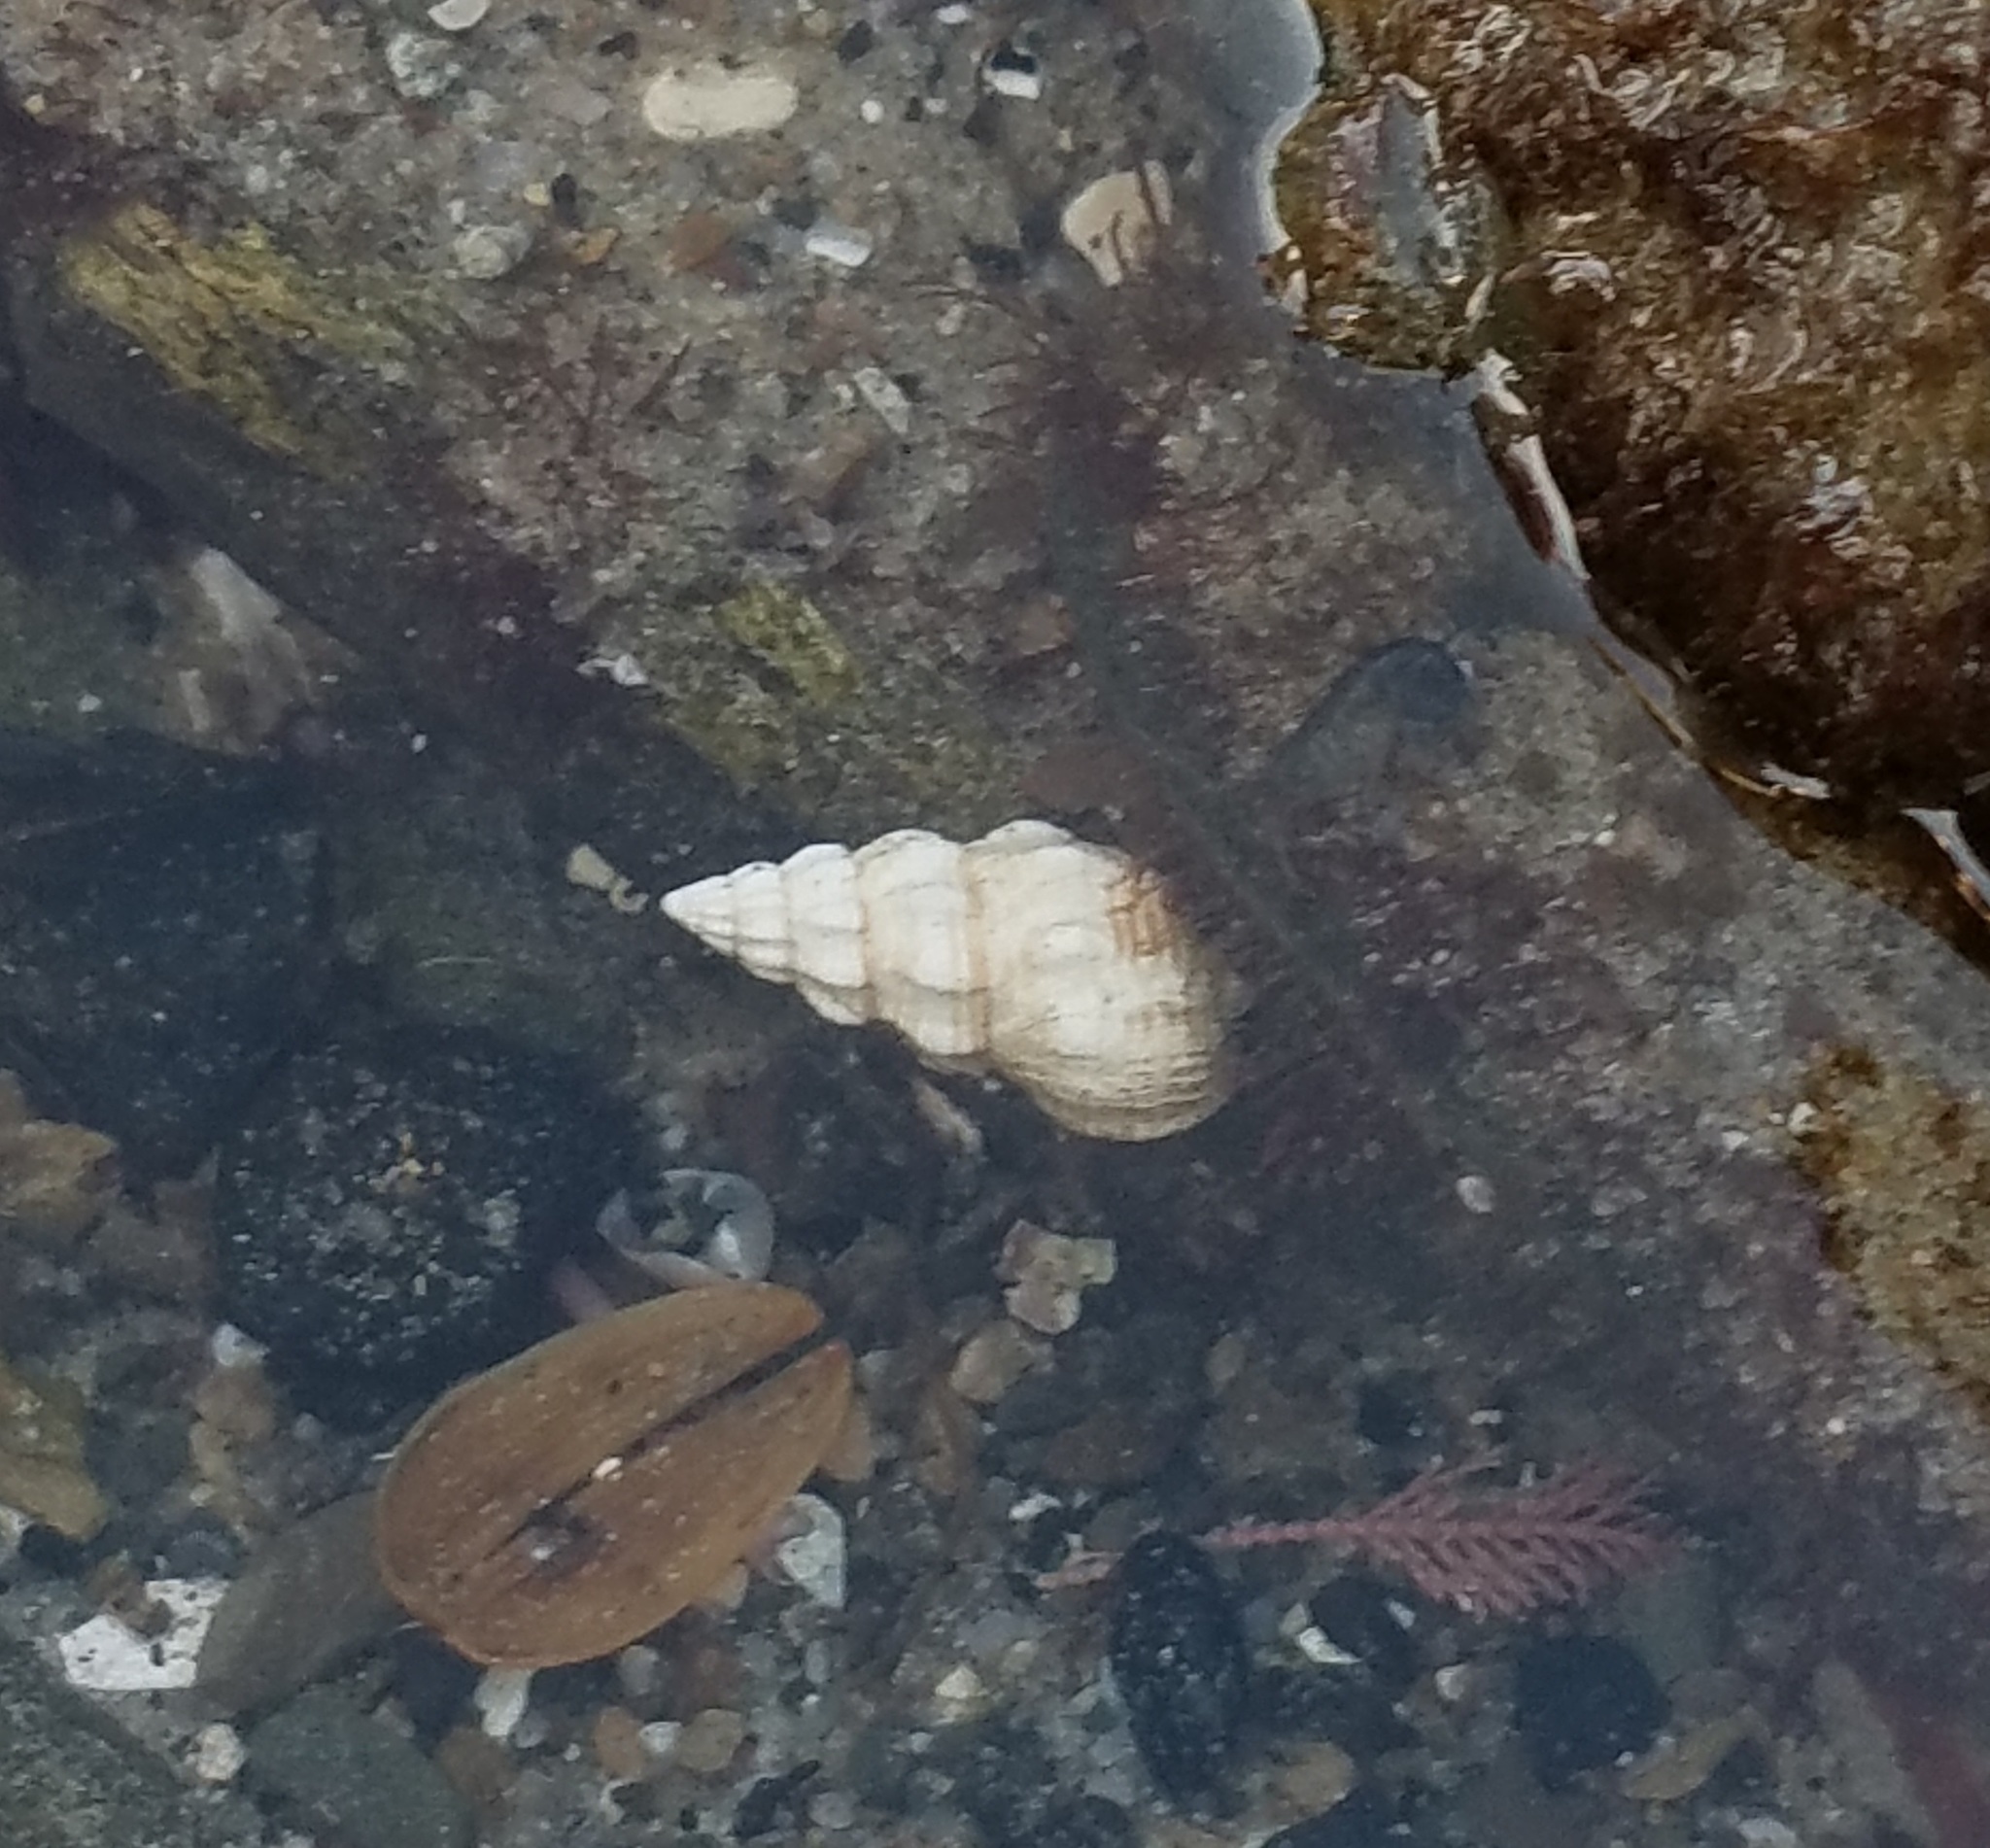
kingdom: Animalia
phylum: Mollusca
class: Gastropoda
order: Neogastropoda
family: Nassariidae
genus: Nassarius
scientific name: Nassarius mendicus
